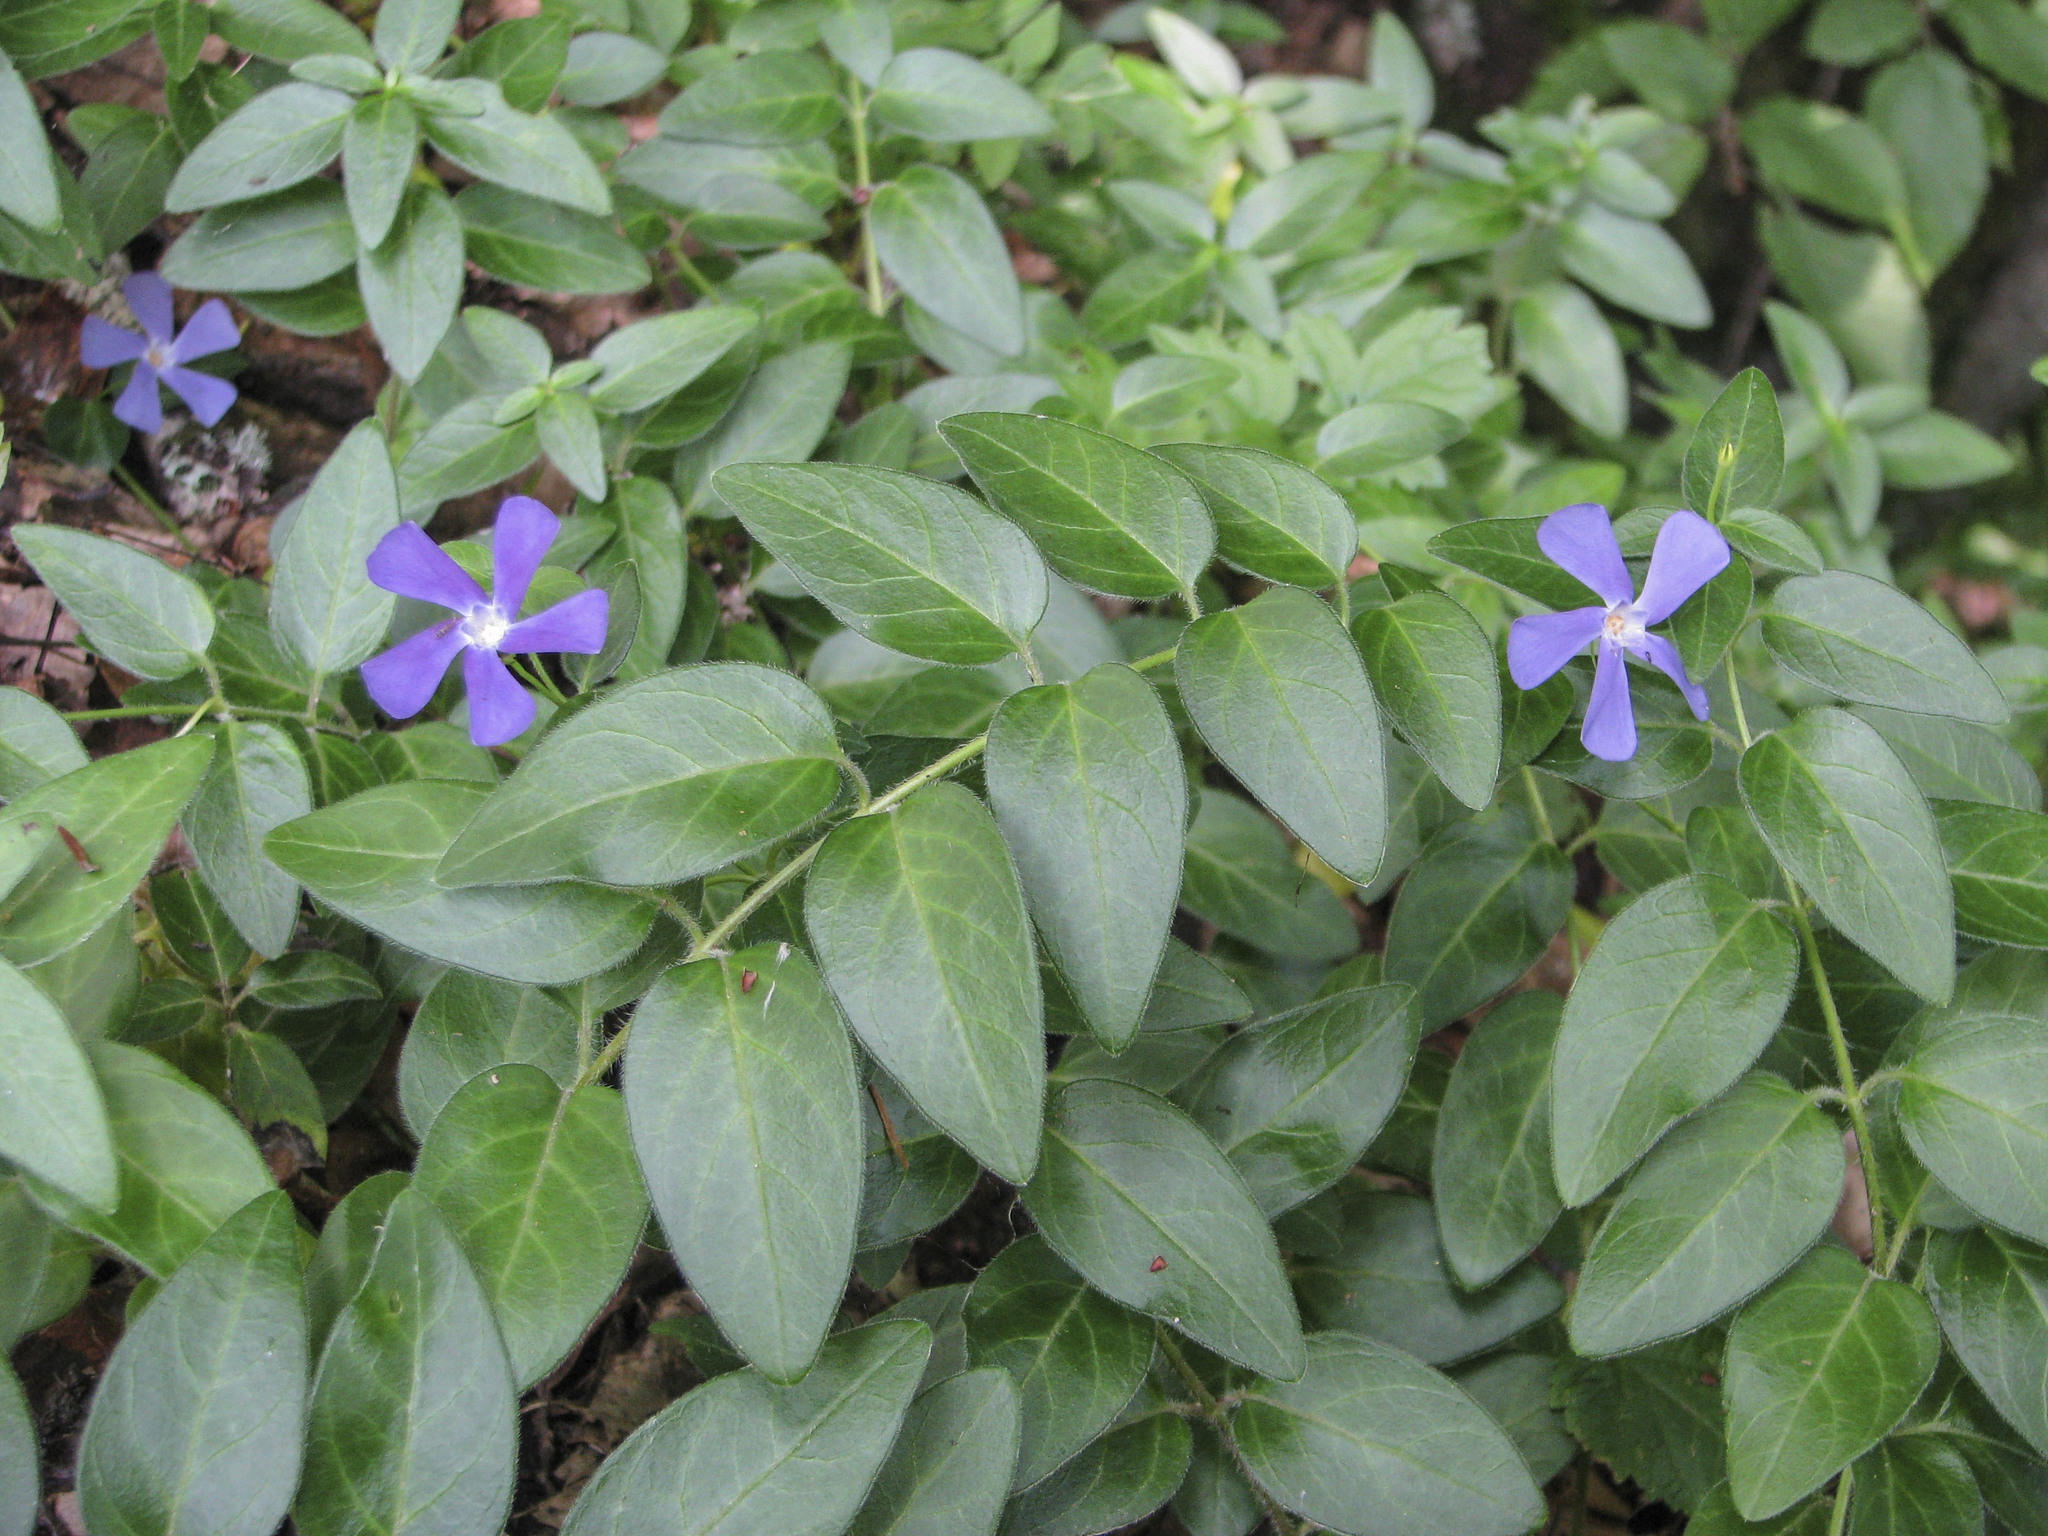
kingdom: Plantae
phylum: Tracheophyta
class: Magnoliopsida
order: Gentianales
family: Apocynaceae
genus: Vinca
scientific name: Vinca major
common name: Greater periwinkle
